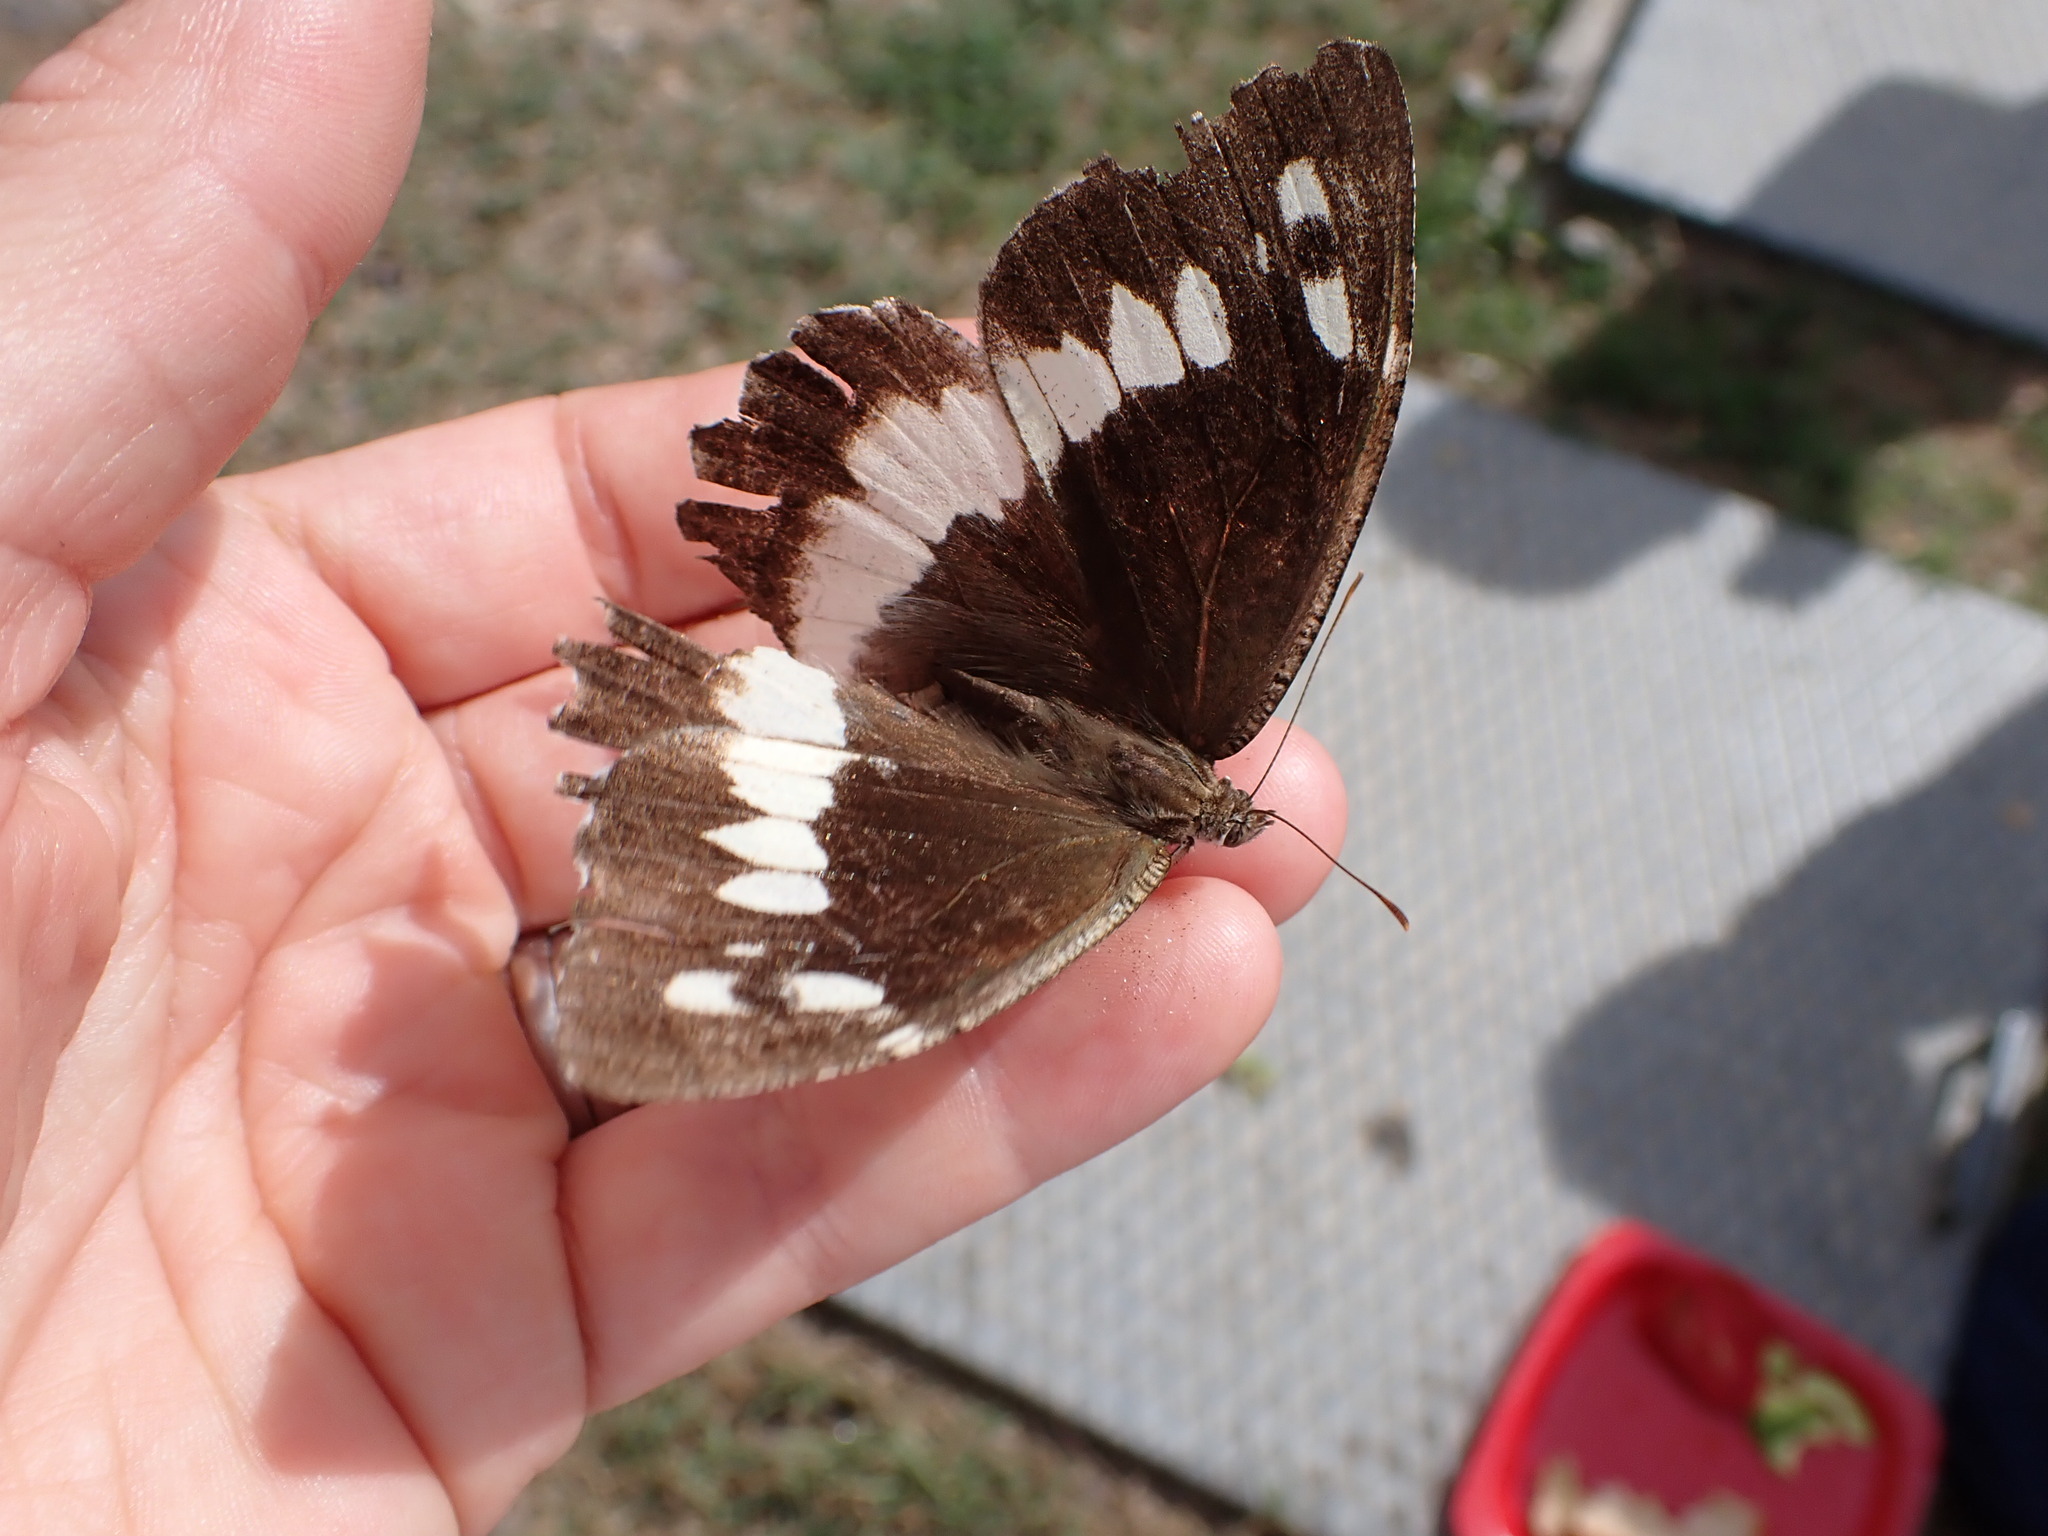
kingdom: Animalia
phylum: Arthropoda
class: Insecta
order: Lepidoptera
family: Lycaenidae
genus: Loweia
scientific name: Loweia tityrus
